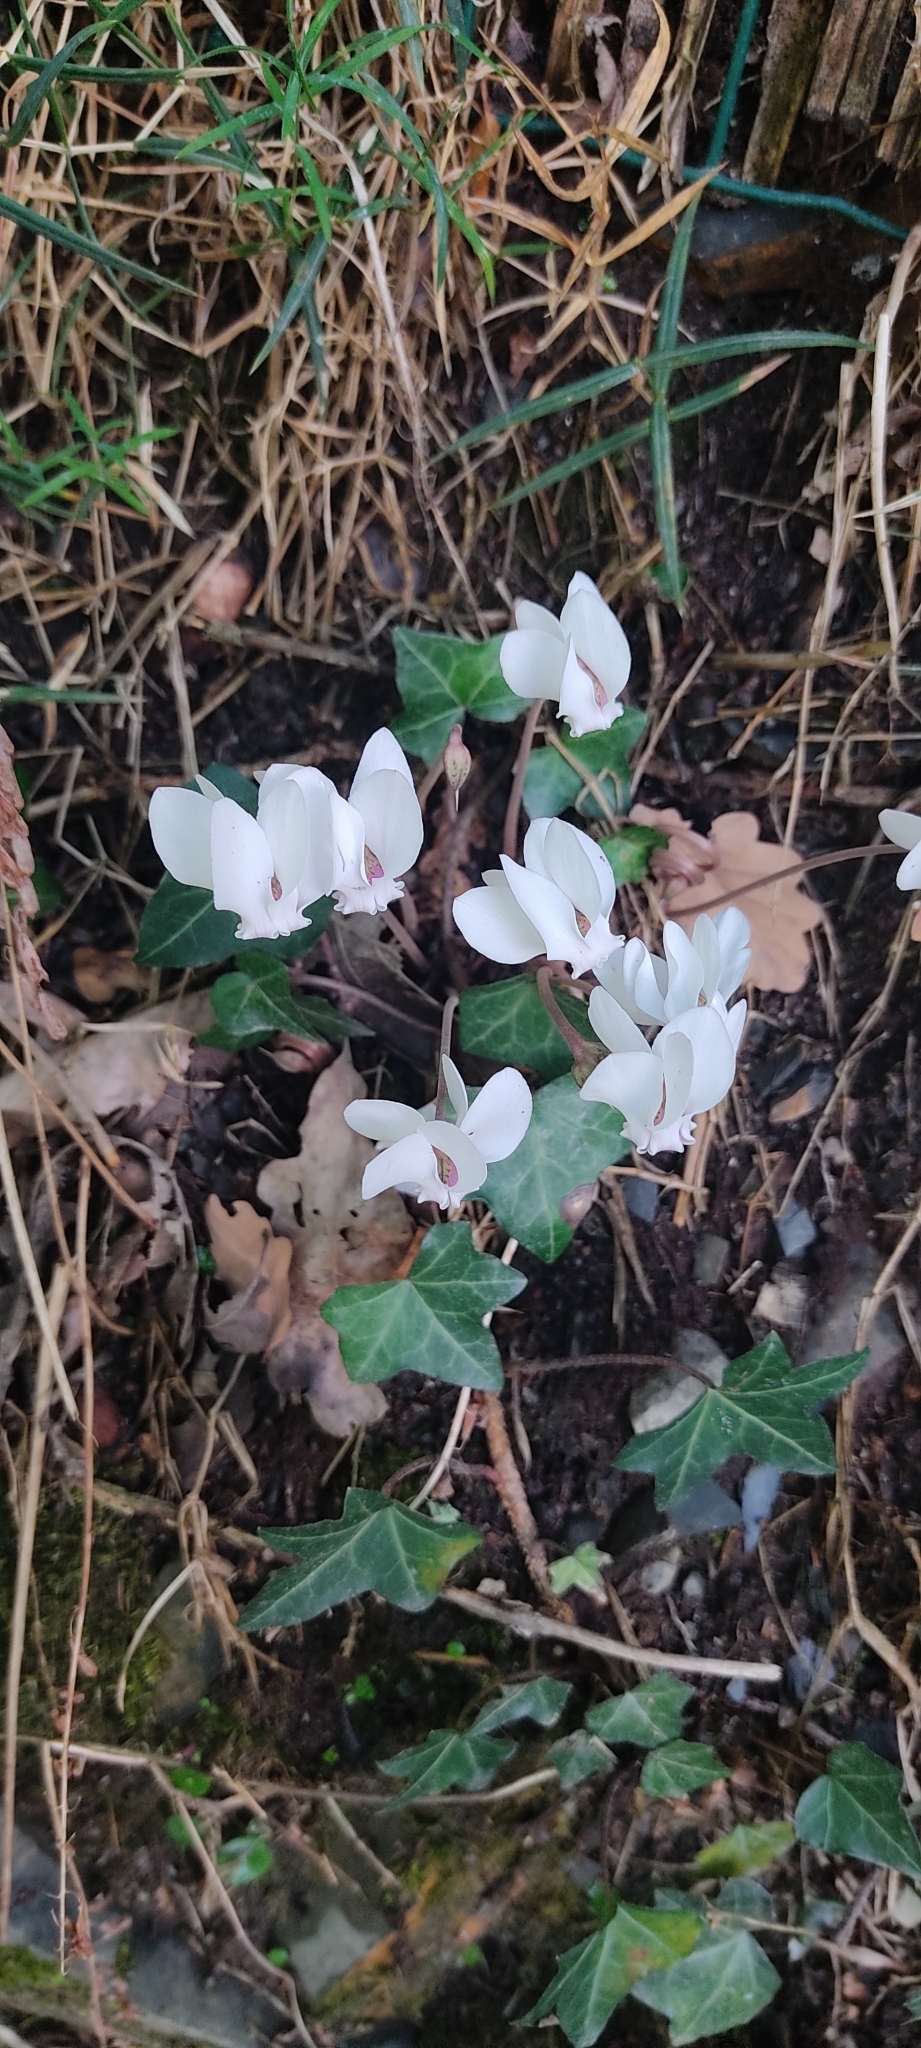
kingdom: Plantae
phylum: Tracheophyta
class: Magnoliopsida
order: Ericales
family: Primulaceae
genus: Cyclamen
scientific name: Cyclamen hederifolium
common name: Sowbread
